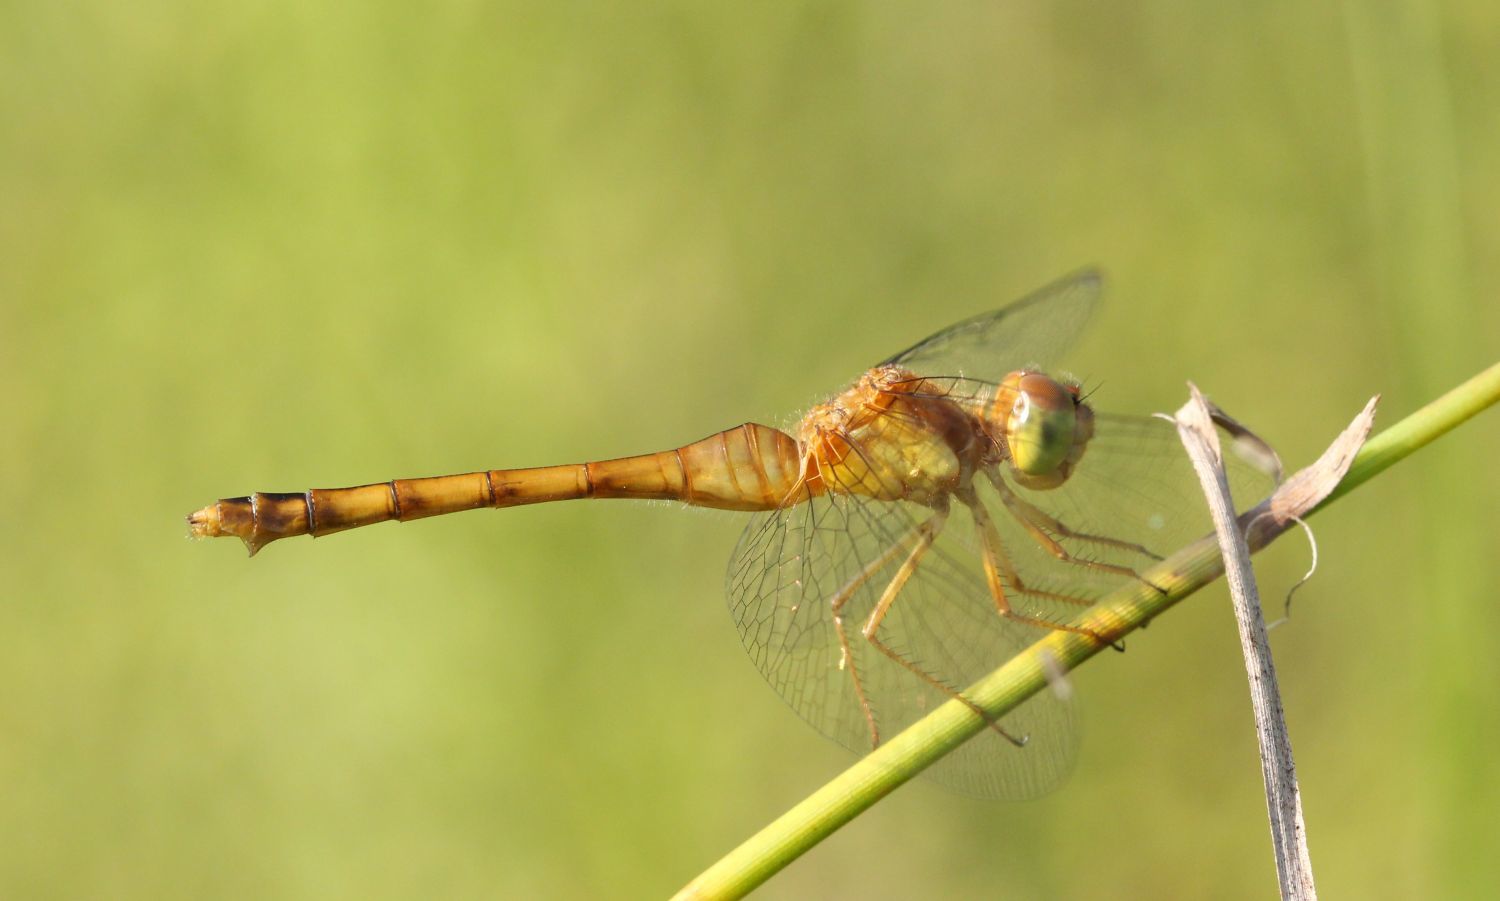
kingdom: Animalia
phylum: Arthropoda
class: Insecta
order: Odonata
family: Libellulidae
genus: Sympetrum
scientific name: Sympetrum vicinum
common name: Autumn meadowhawk
